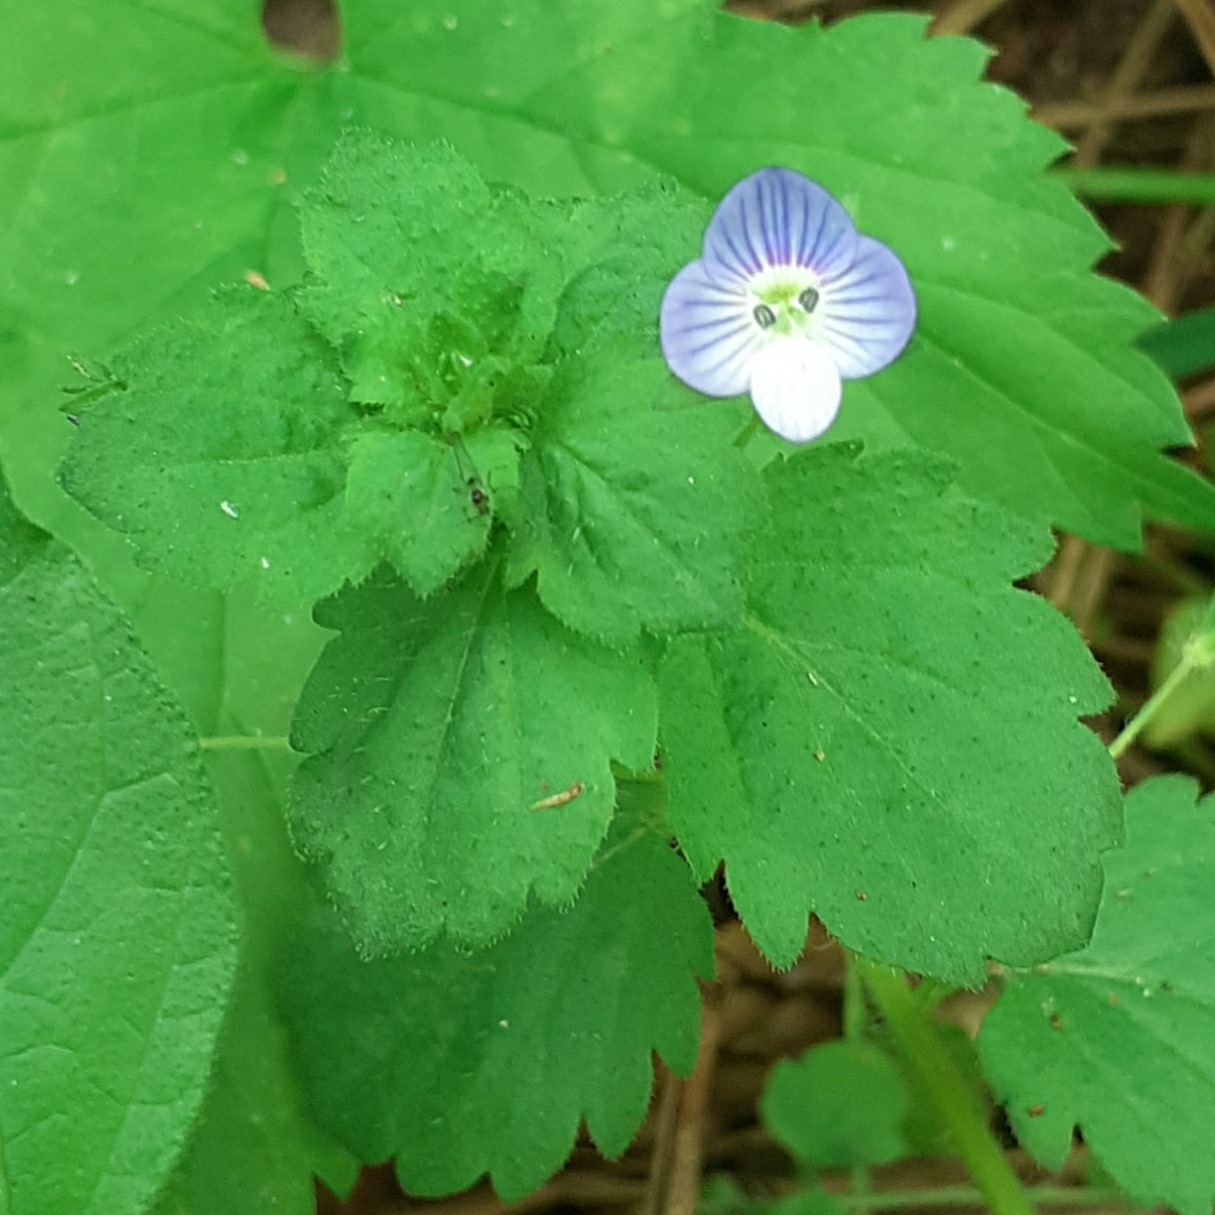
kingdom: Plantae
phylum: Tracheophyta
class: Magnoliopsida
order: Lamiales
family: Plantaginaceae
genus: Veronica
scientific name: Veronica persica
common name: Common field-speedwell
